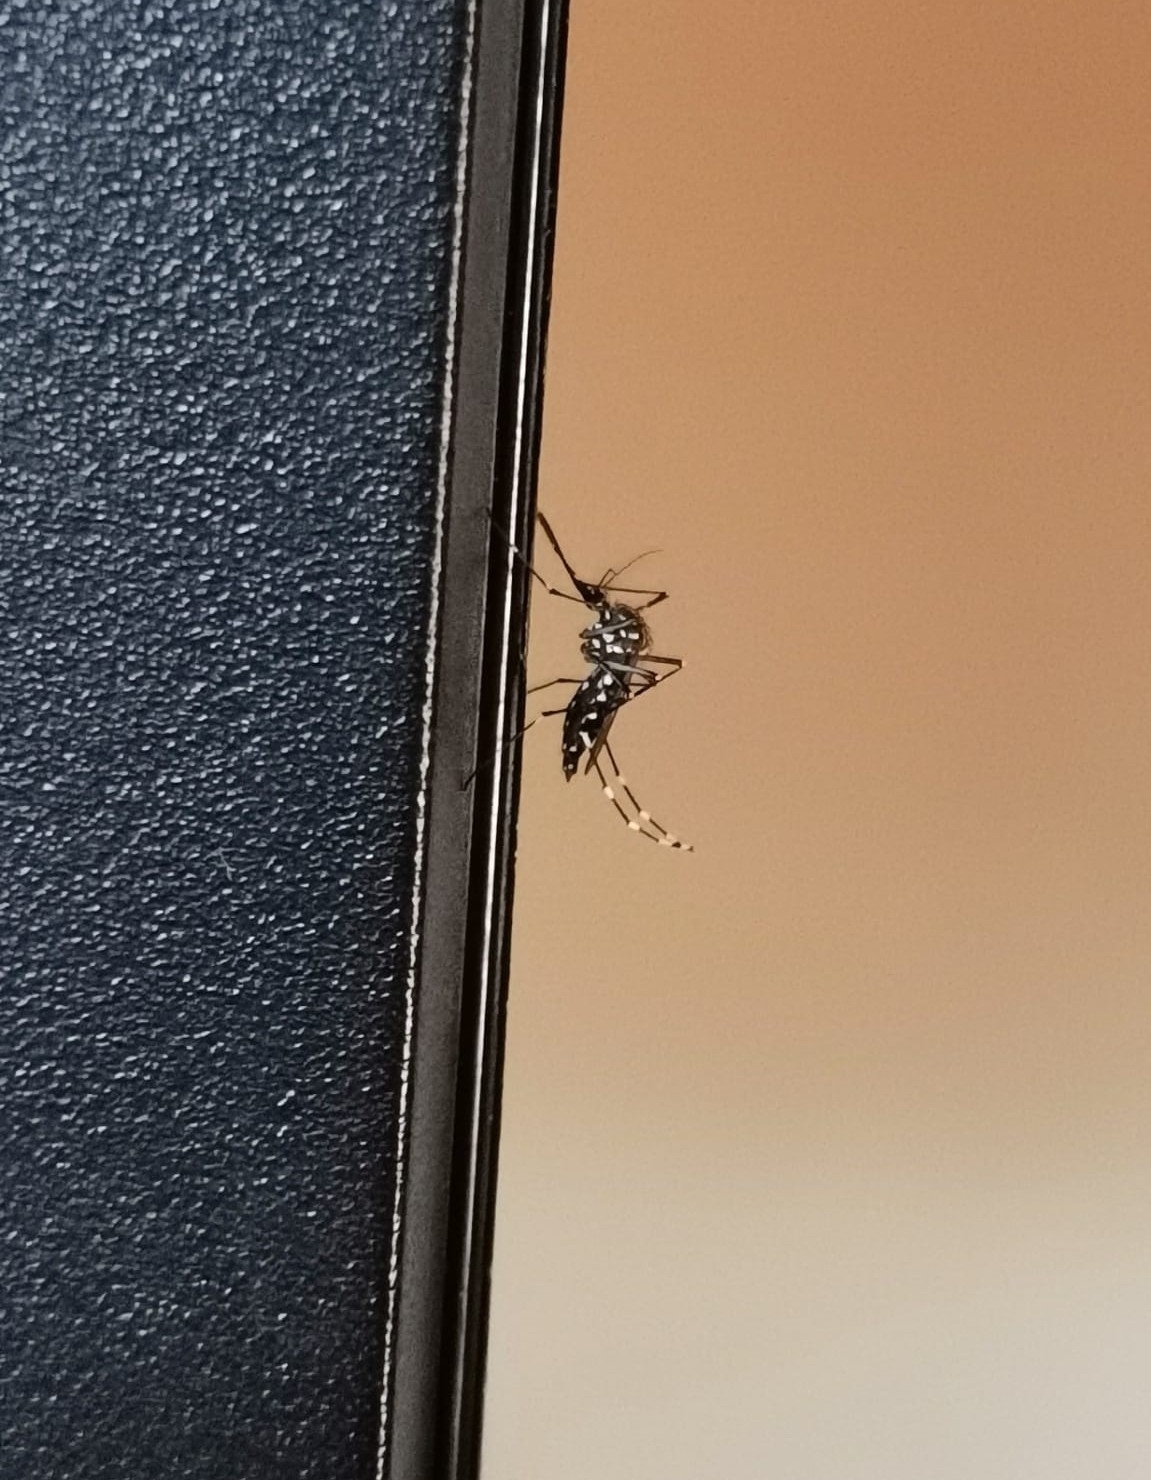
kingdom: Animalia
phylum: Arthropoda
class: Insecta
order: Diptera
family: Culicidae
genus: Aedes
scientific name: Aedes aegypti
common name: Yellow fever mosquito
